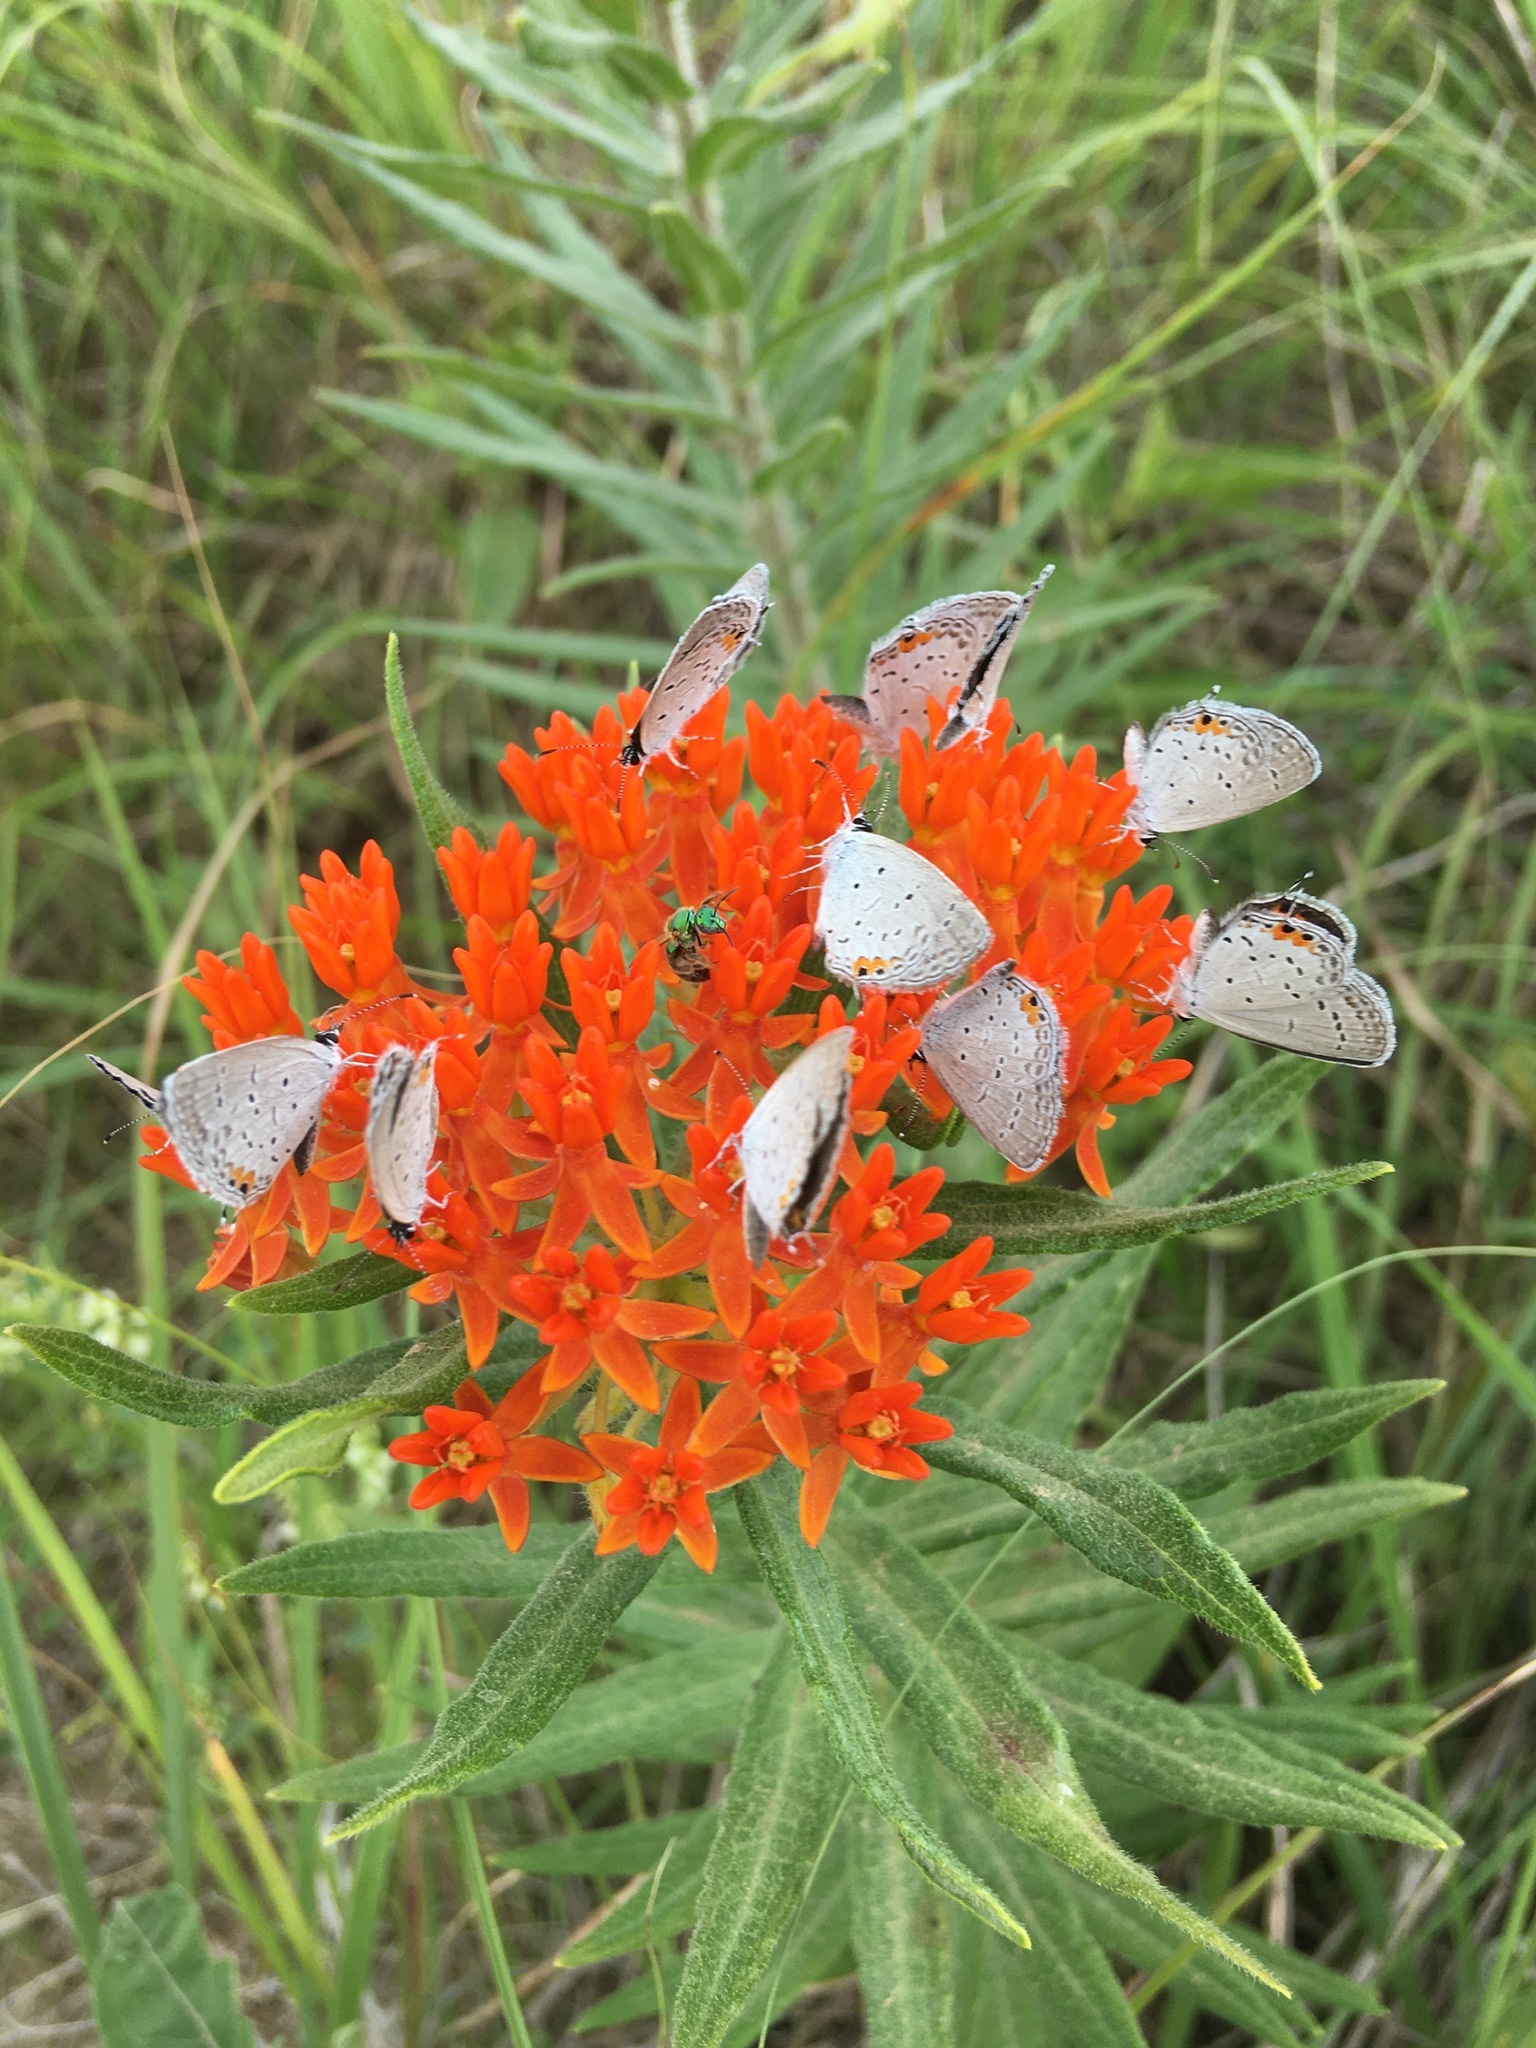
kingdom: Animalia
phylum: Arthropoda
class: Insecta
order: Lepidoptera
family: Lycaenidae
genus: Elkalyce
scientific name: Elkalyce comyntas
